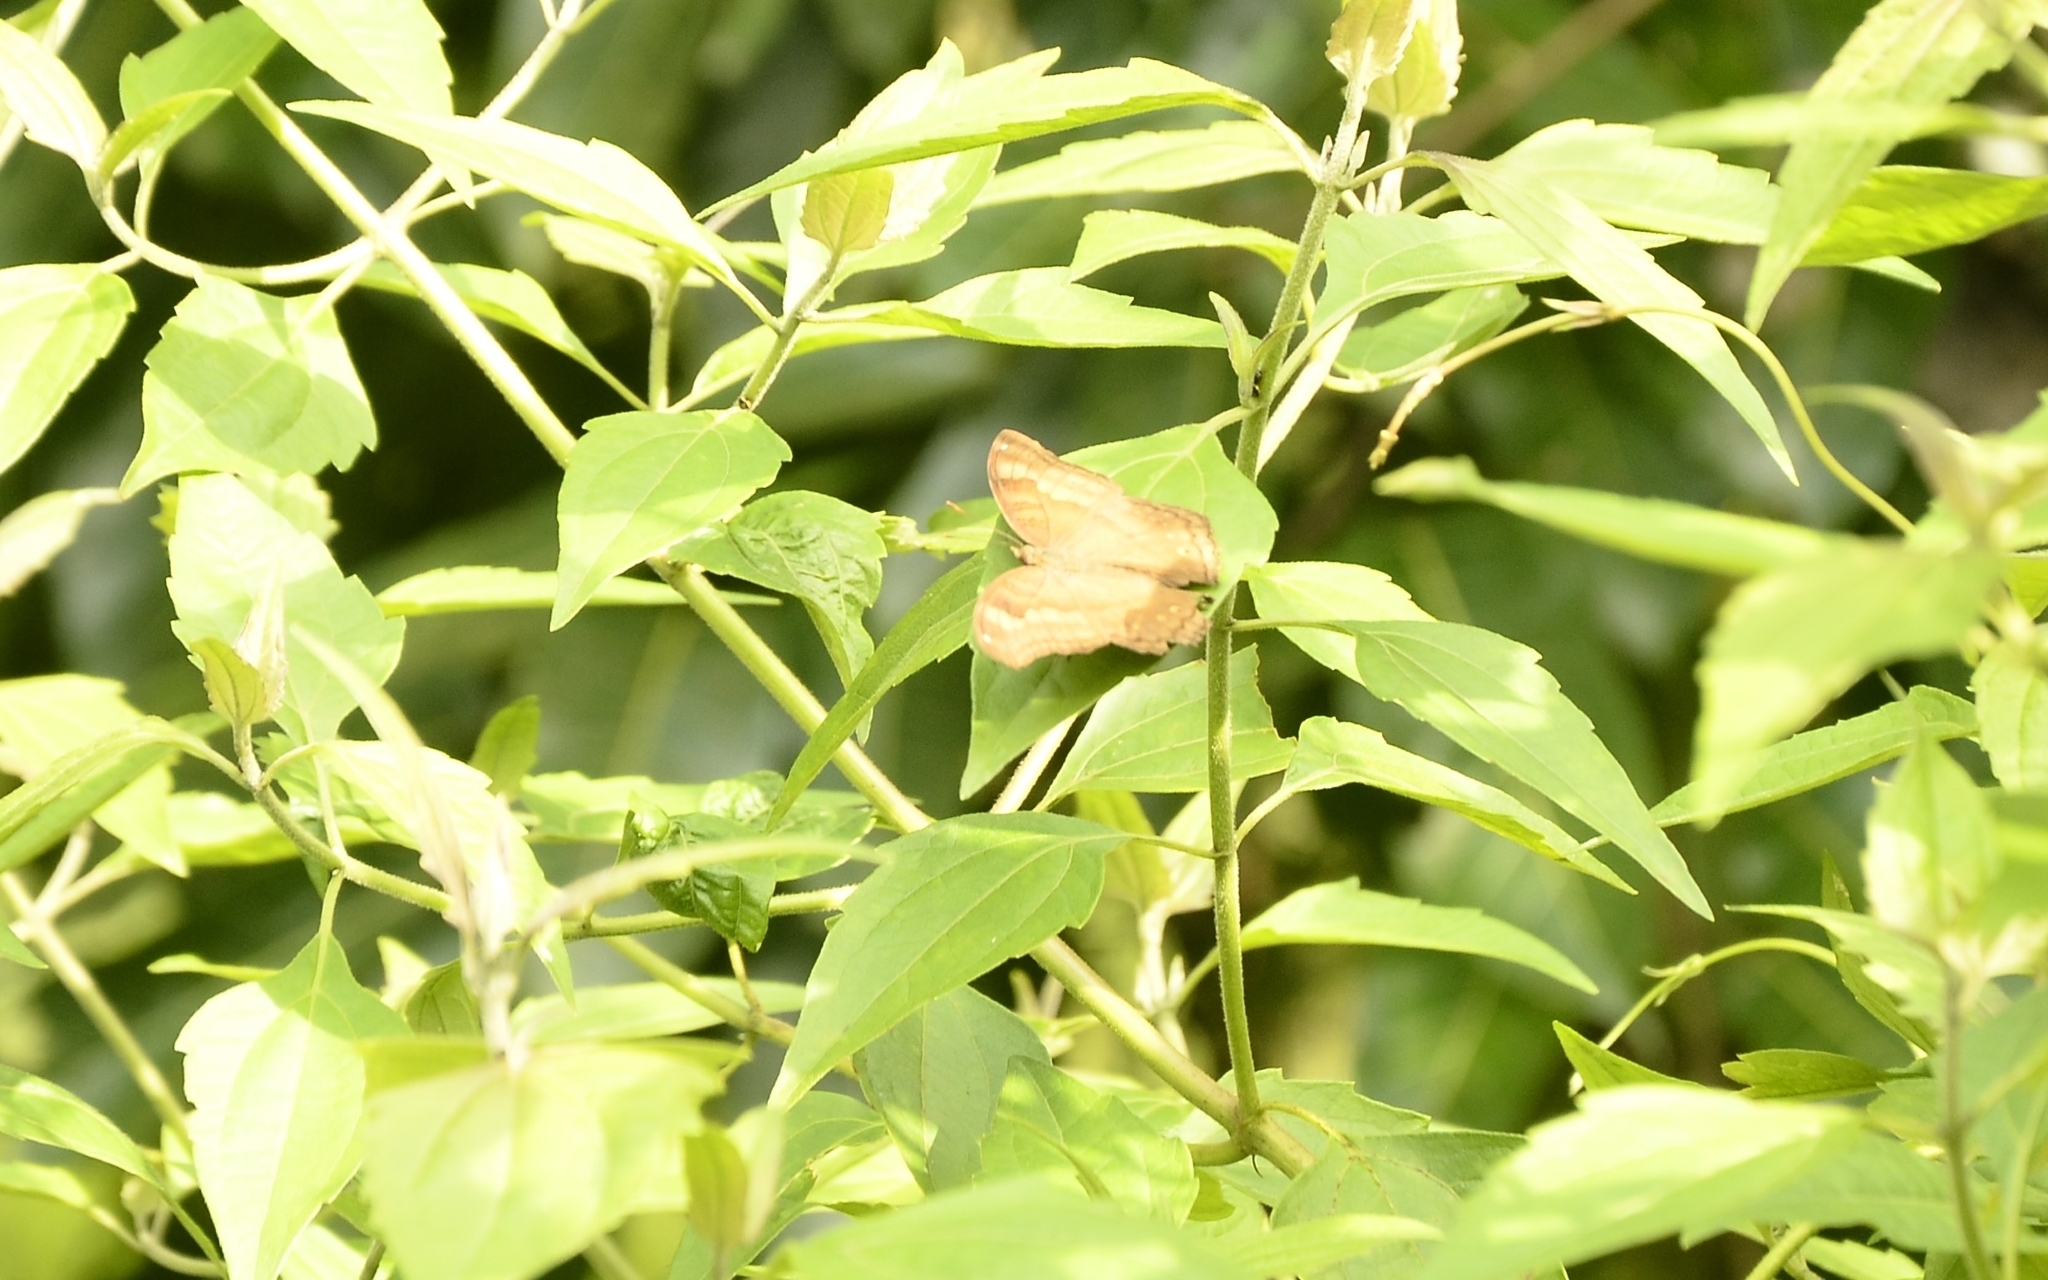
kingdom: Animalia
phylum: Arthropoda
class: Insecta
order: Lepidoptera
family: Nymphalidae
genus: Junonia
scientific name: Junonia iphita
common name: Chocolate pansy
